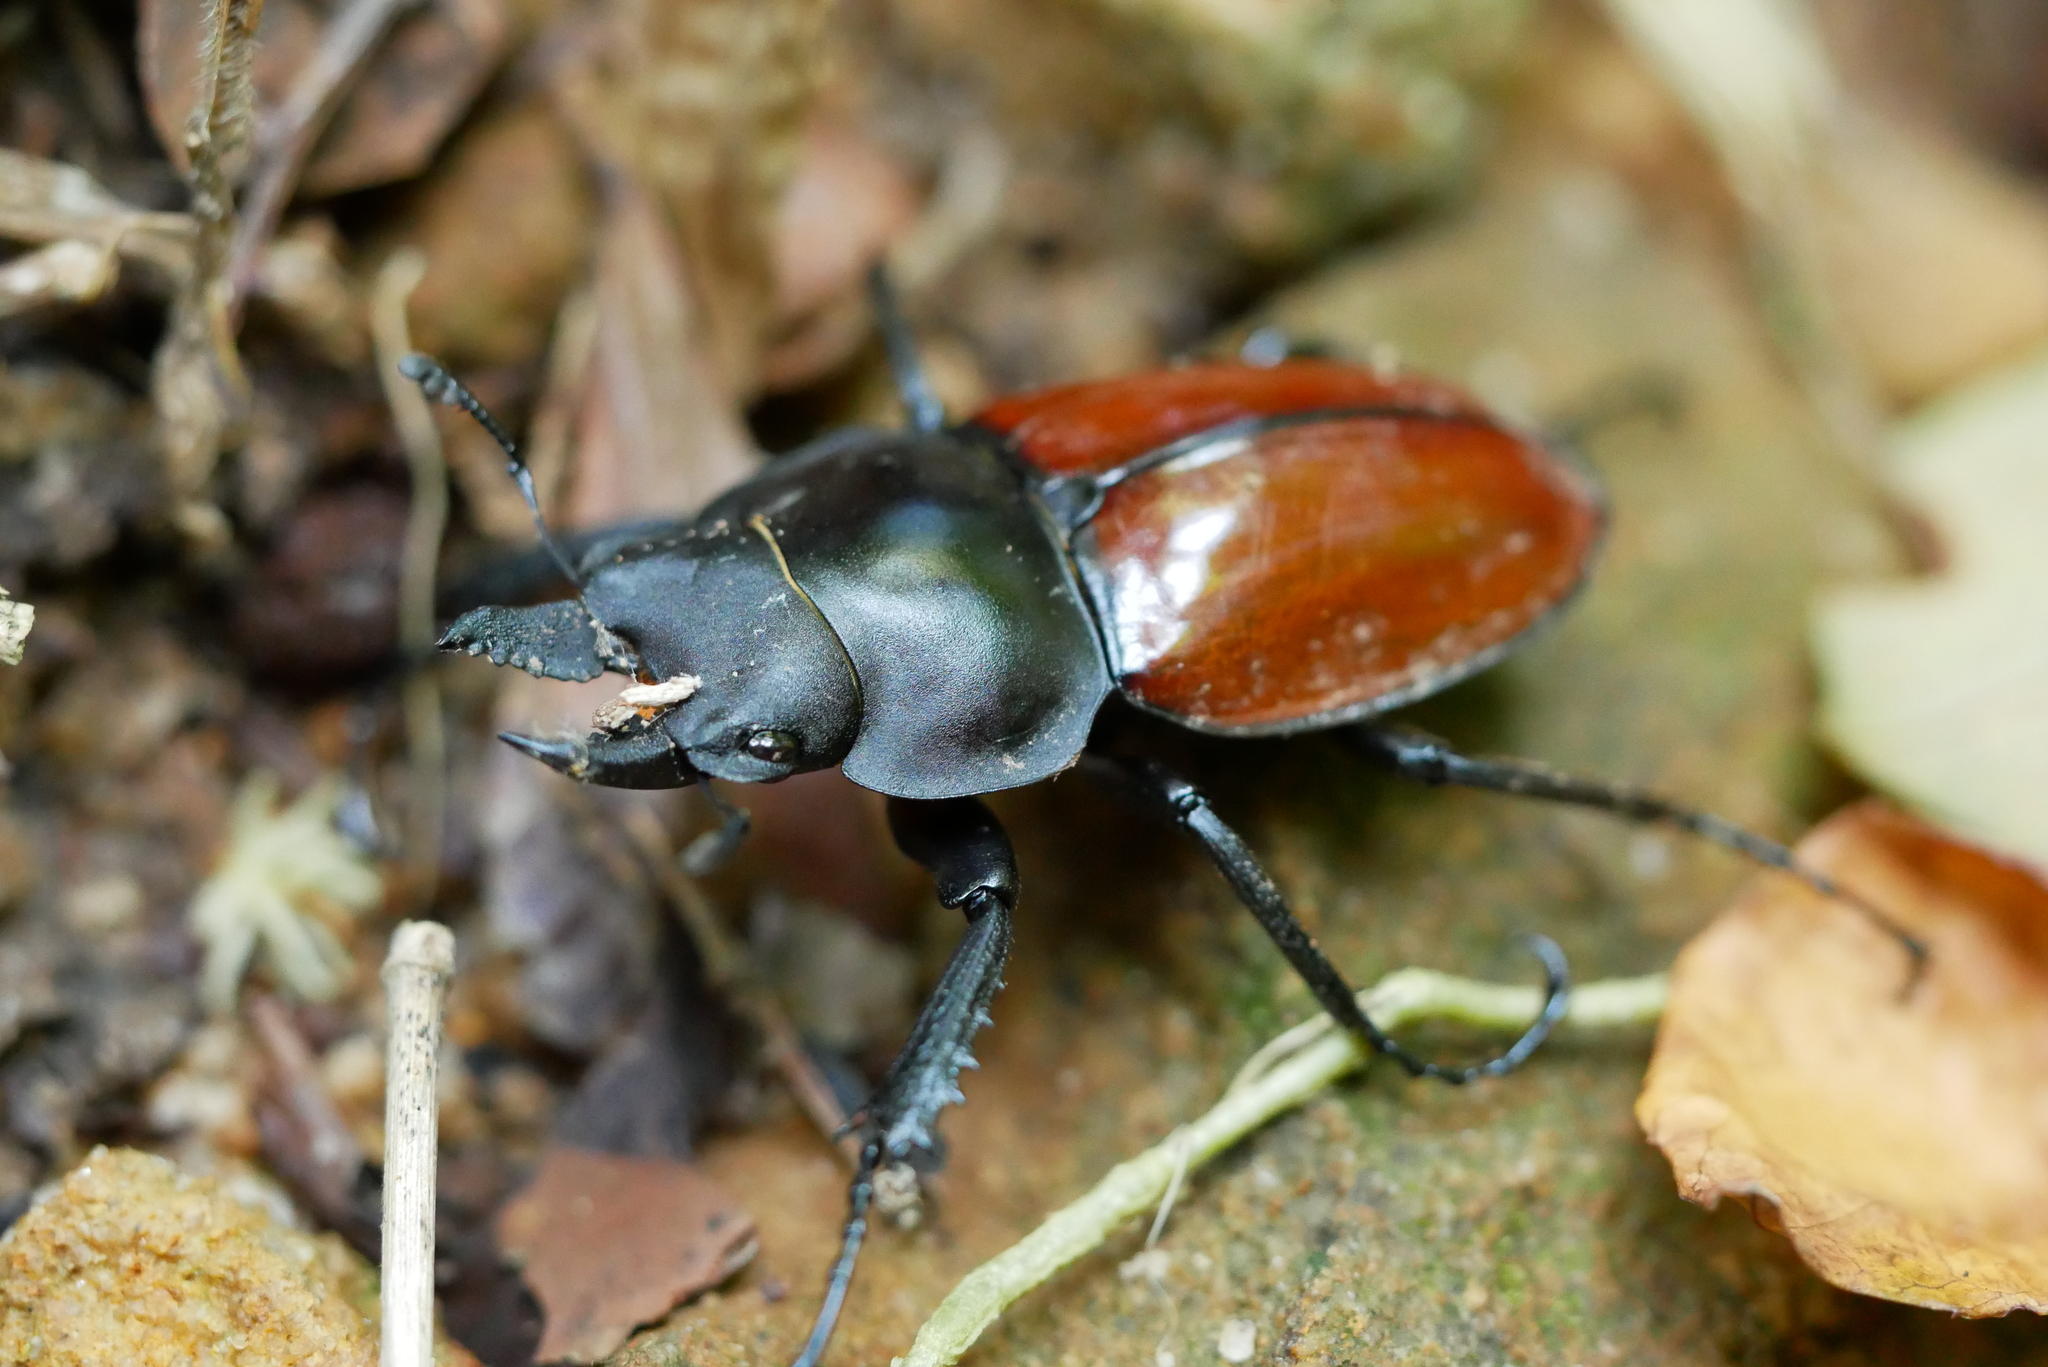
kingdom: Animalia
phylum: Arthropoda
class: Insecta
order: Coleoptera
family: Lucanidae
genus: Neolucanus
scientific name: Neolucanus swinhoei
